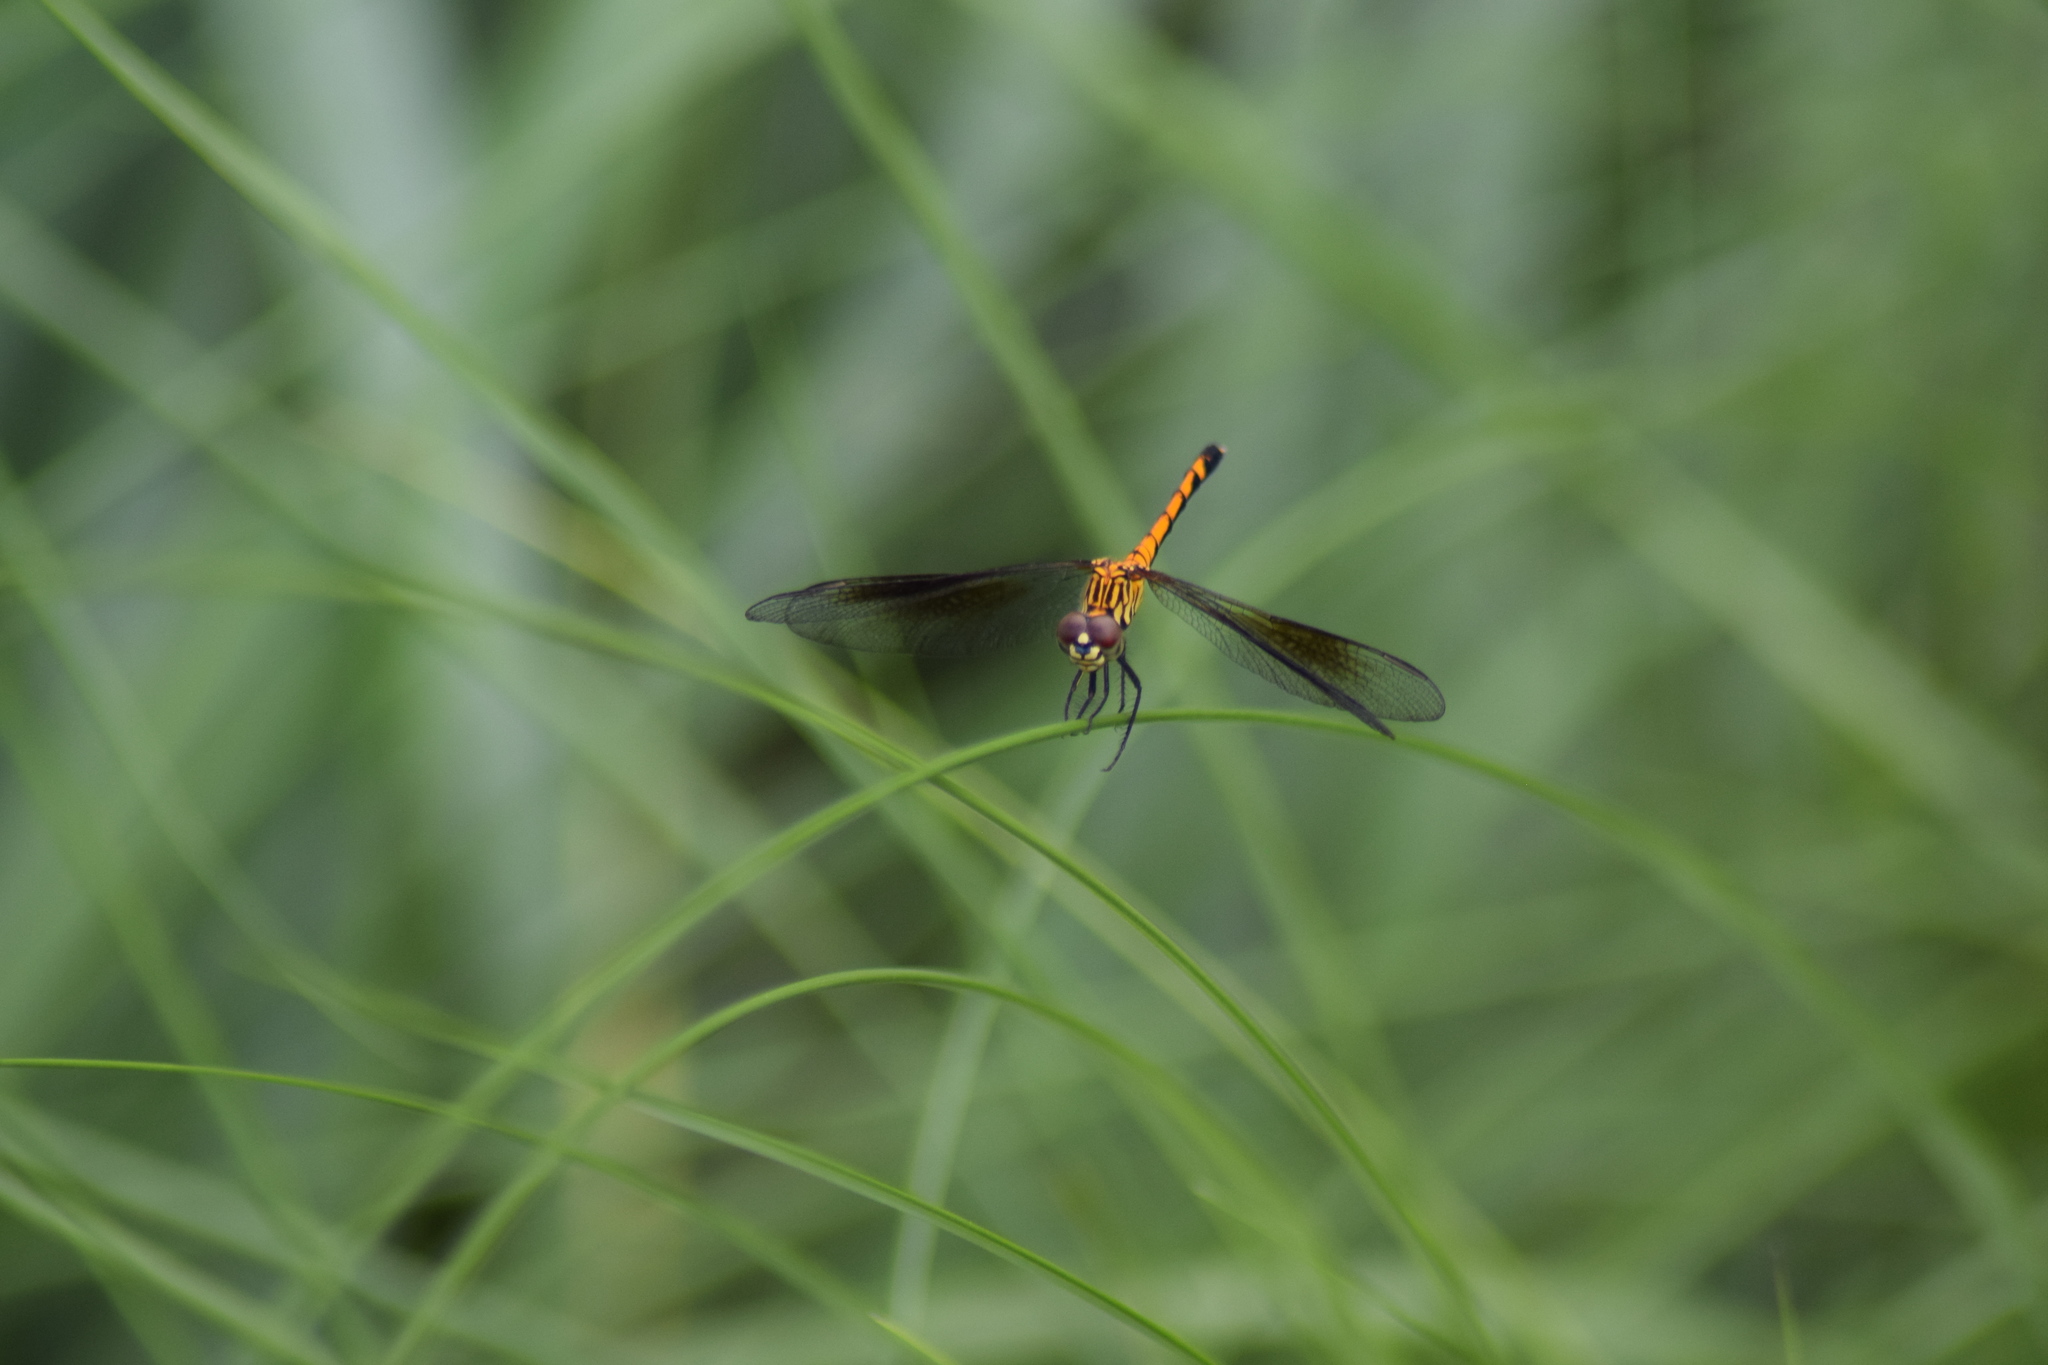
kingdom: Animalia
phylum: Arthropoda
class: Insecta
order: Odonata
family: Libellulidae
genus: Erythrodiplax
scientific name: Erythrodiplax berenice
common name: Seaside dragonlet
